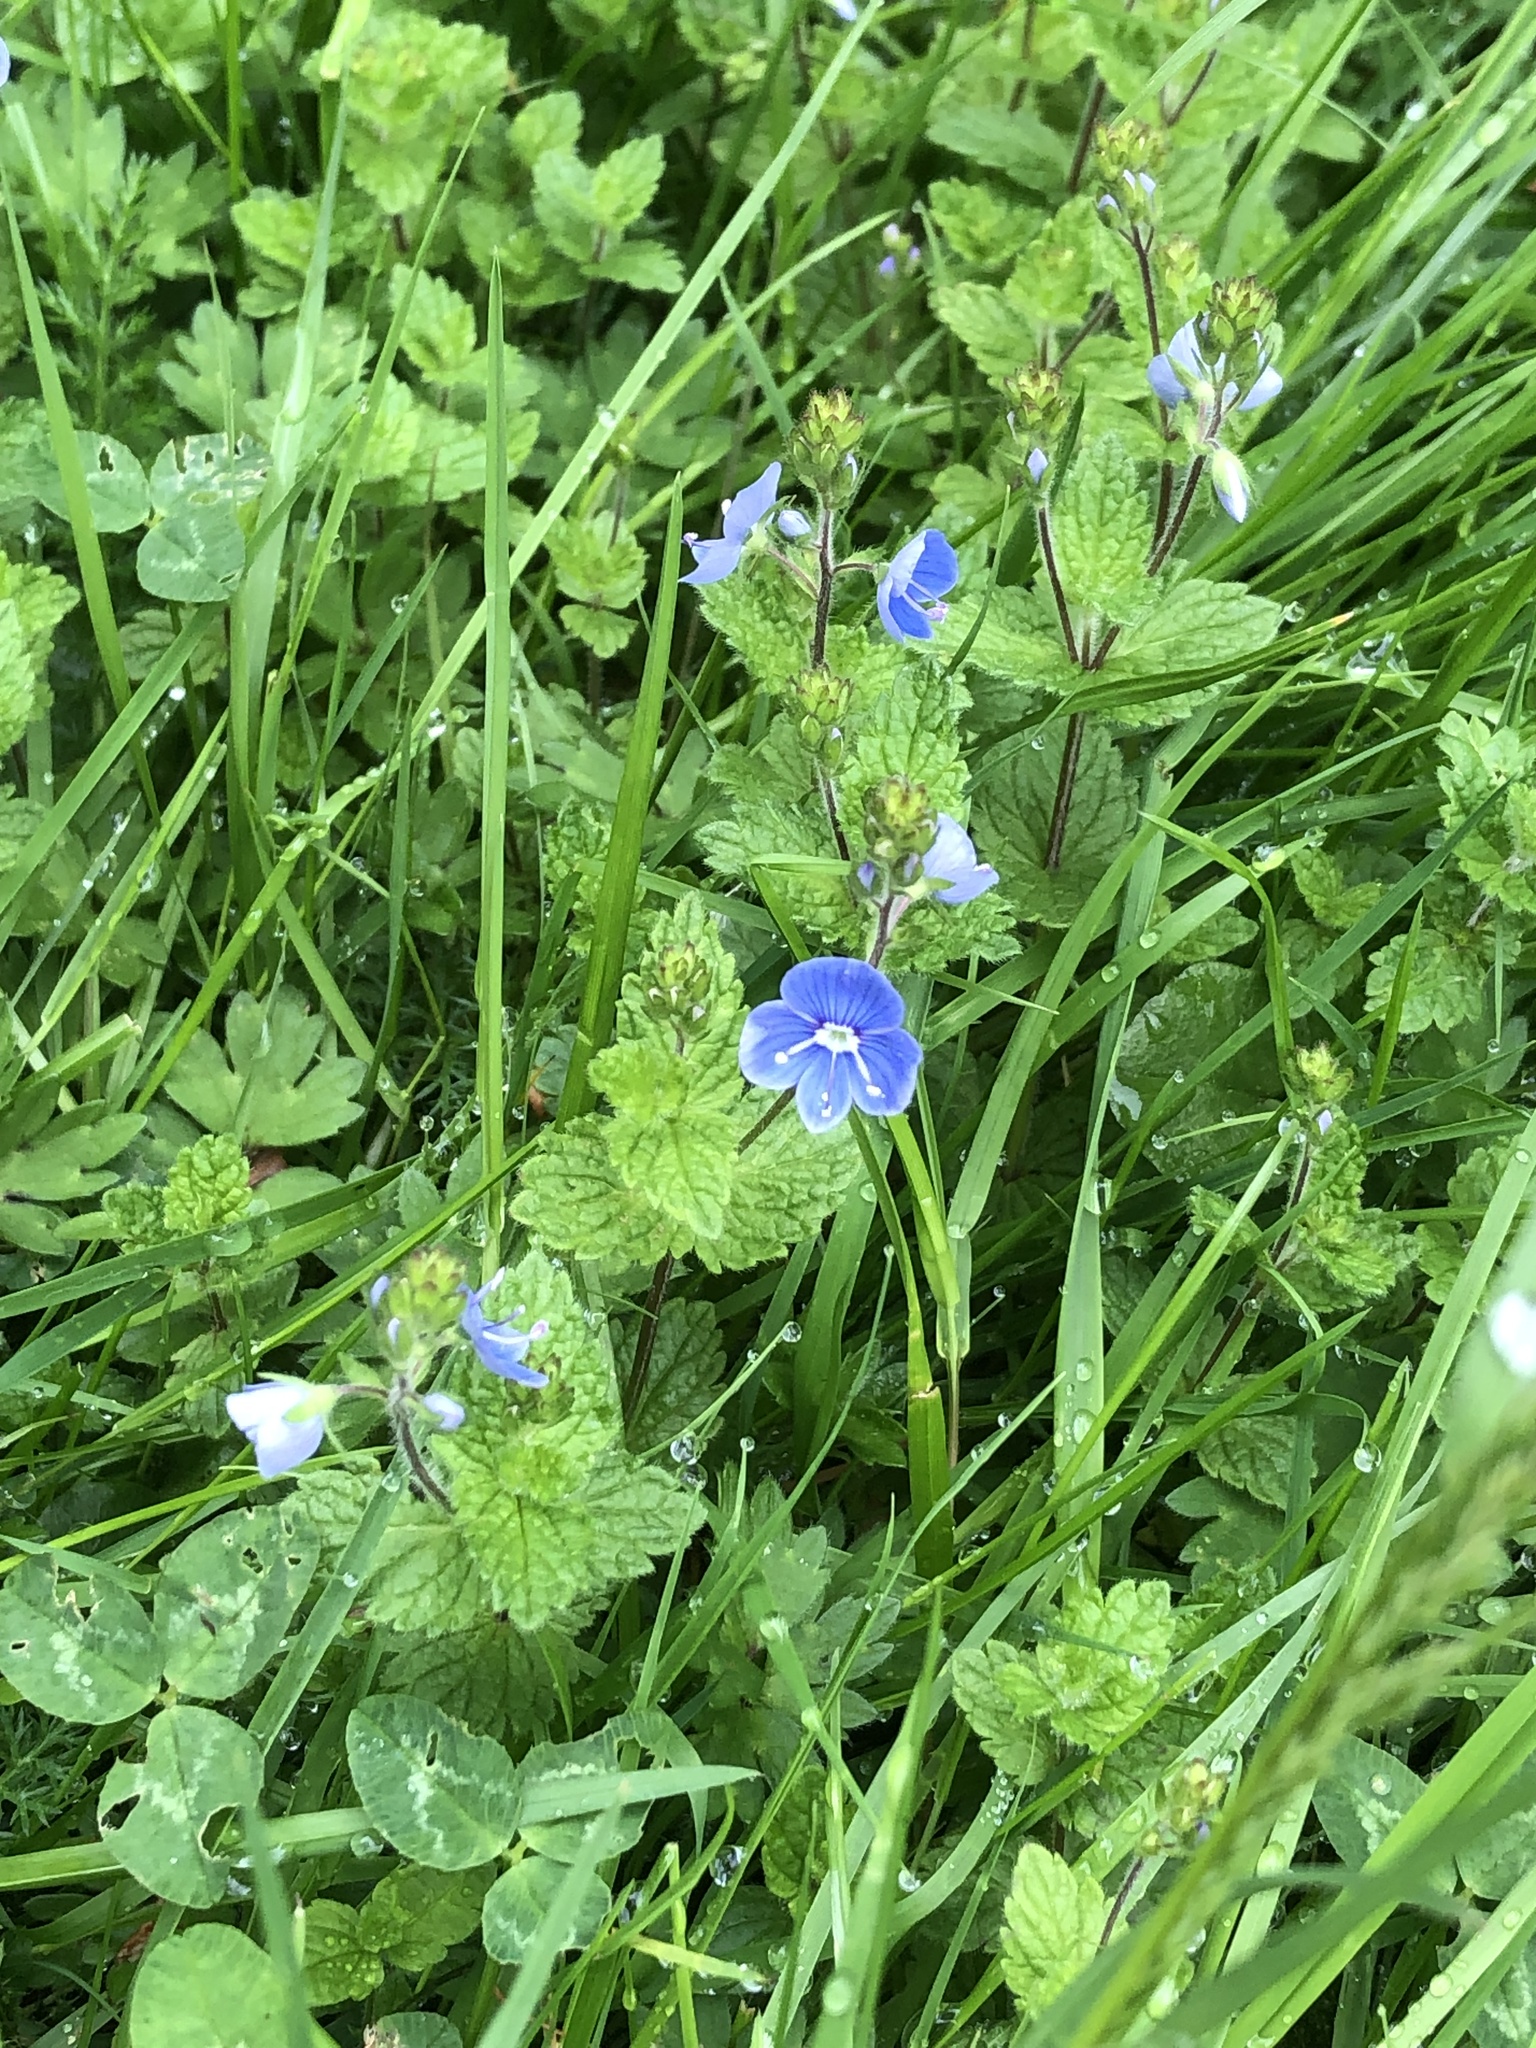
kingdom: Plantae
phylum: Tracheophyta
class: Magnoliopsida
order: Lamiales
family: Plantaginaceae
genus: Veronica
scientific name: Veronica chamaedrys
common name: Germander speedwell
